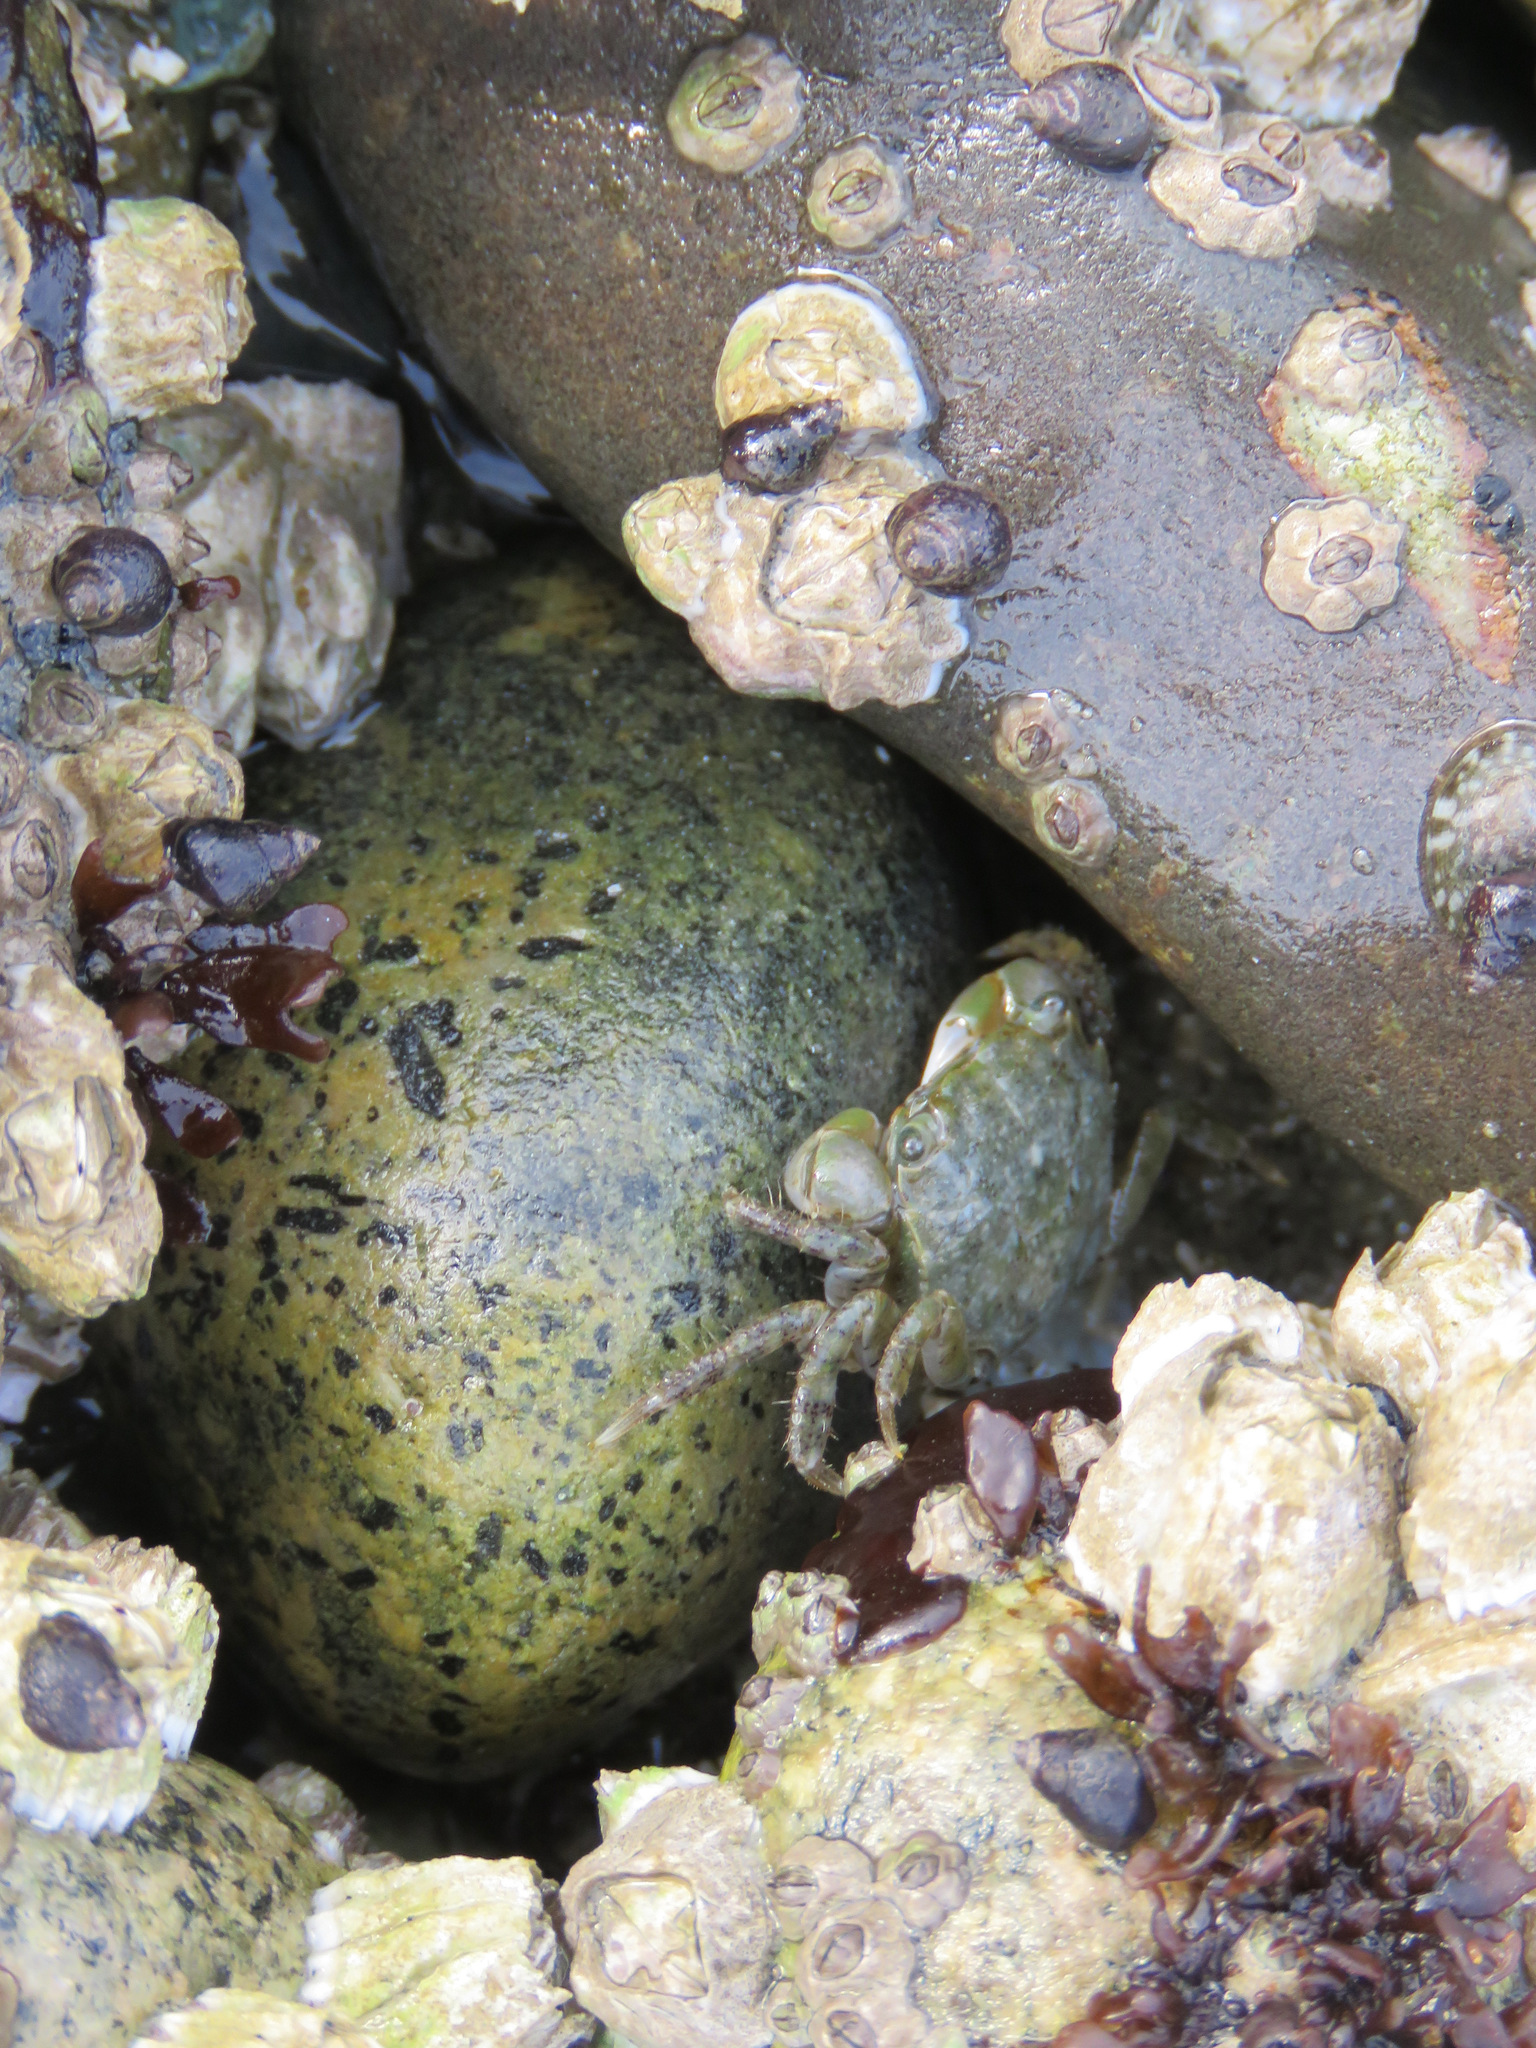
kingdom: Animalia
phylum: Arthropoda
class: Malacostraca
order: Decapoda
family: Varunidae
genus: Hemigrapsus
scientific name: Hemigrapsus oregonensis
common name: Yellow shore crab
